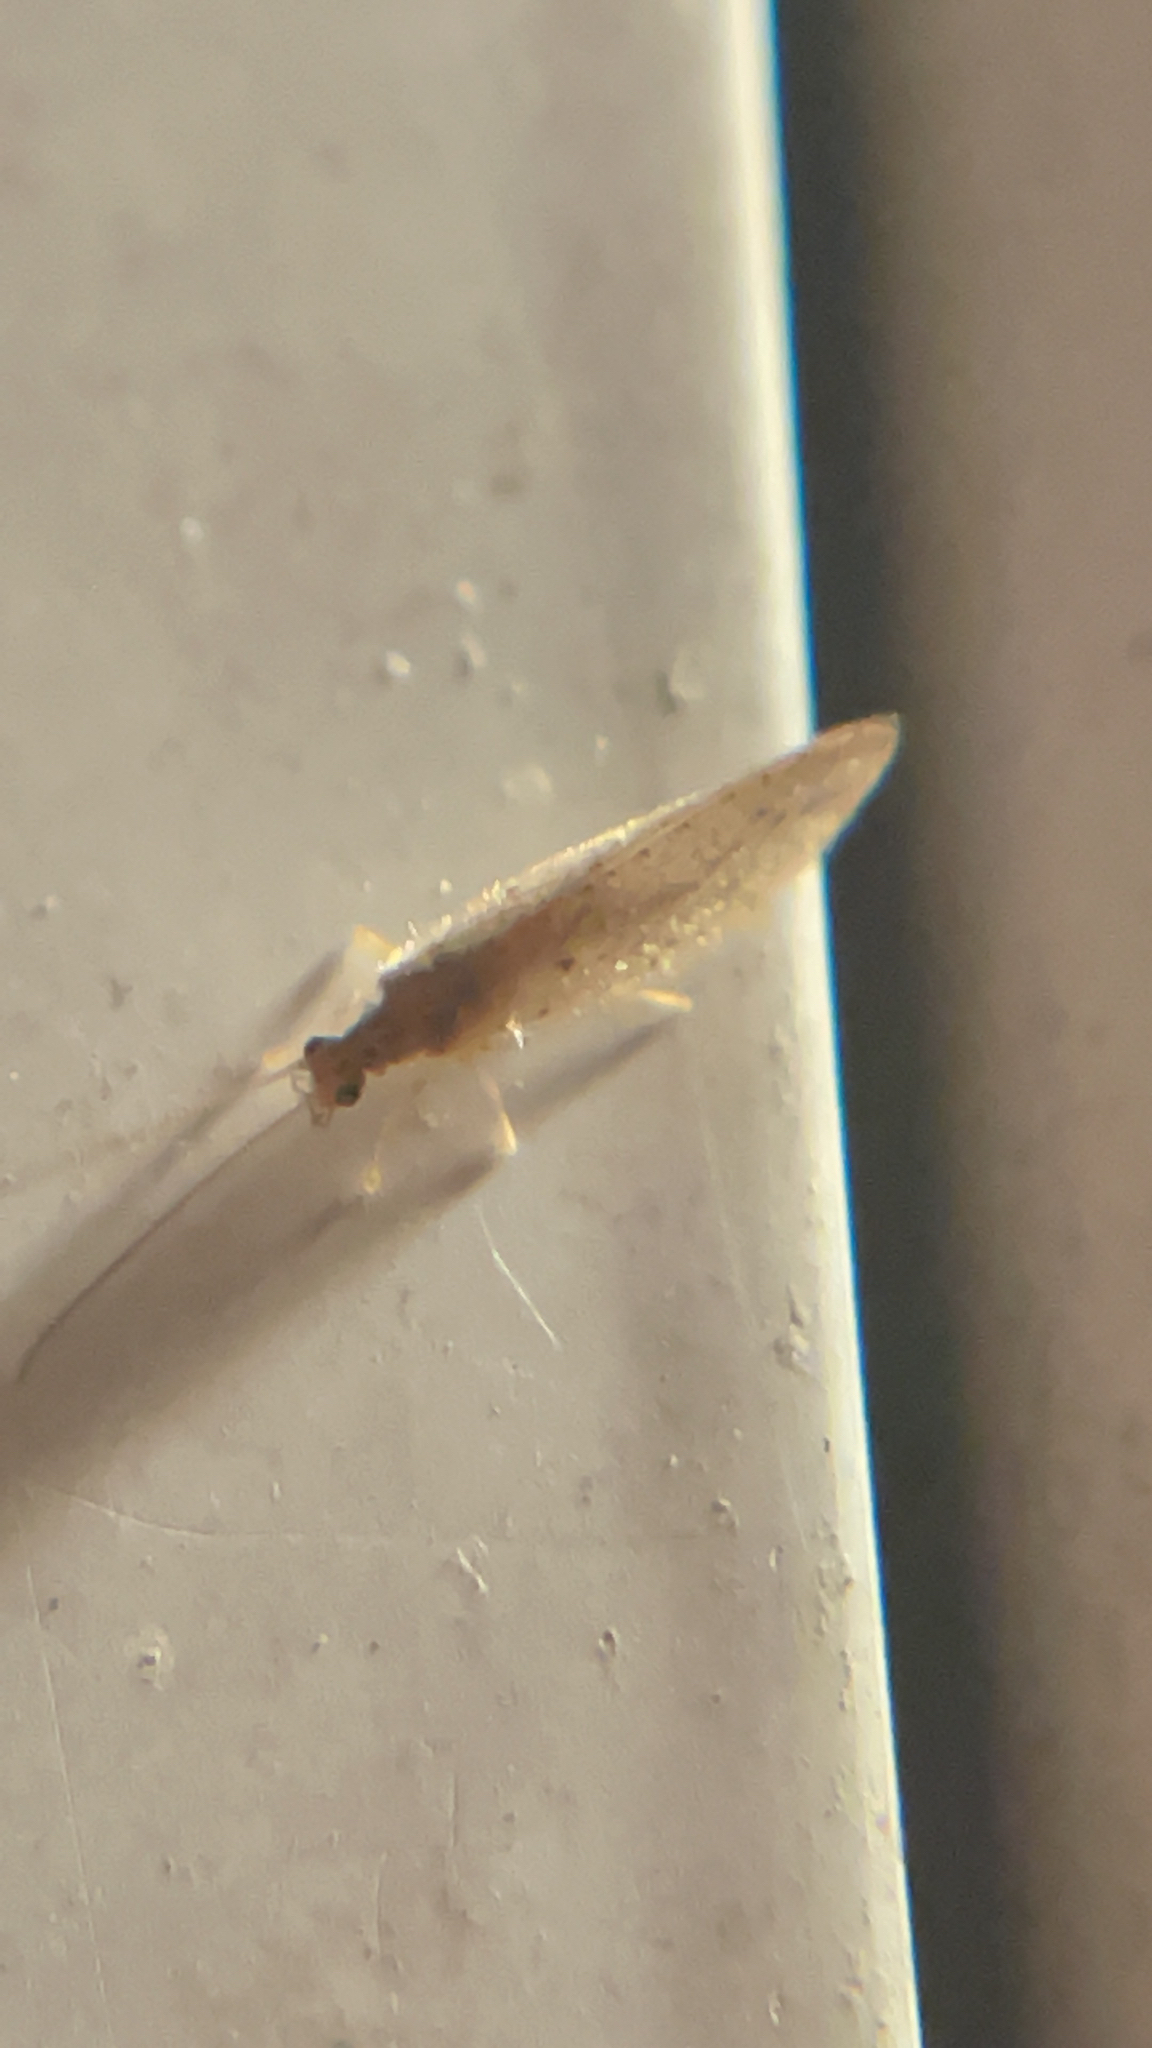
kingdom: Animalia
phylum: Arthropoda
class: Insecta
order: Neuroptera
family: Hemerobiidae
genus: Micromus
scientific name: Micromus subanticus
